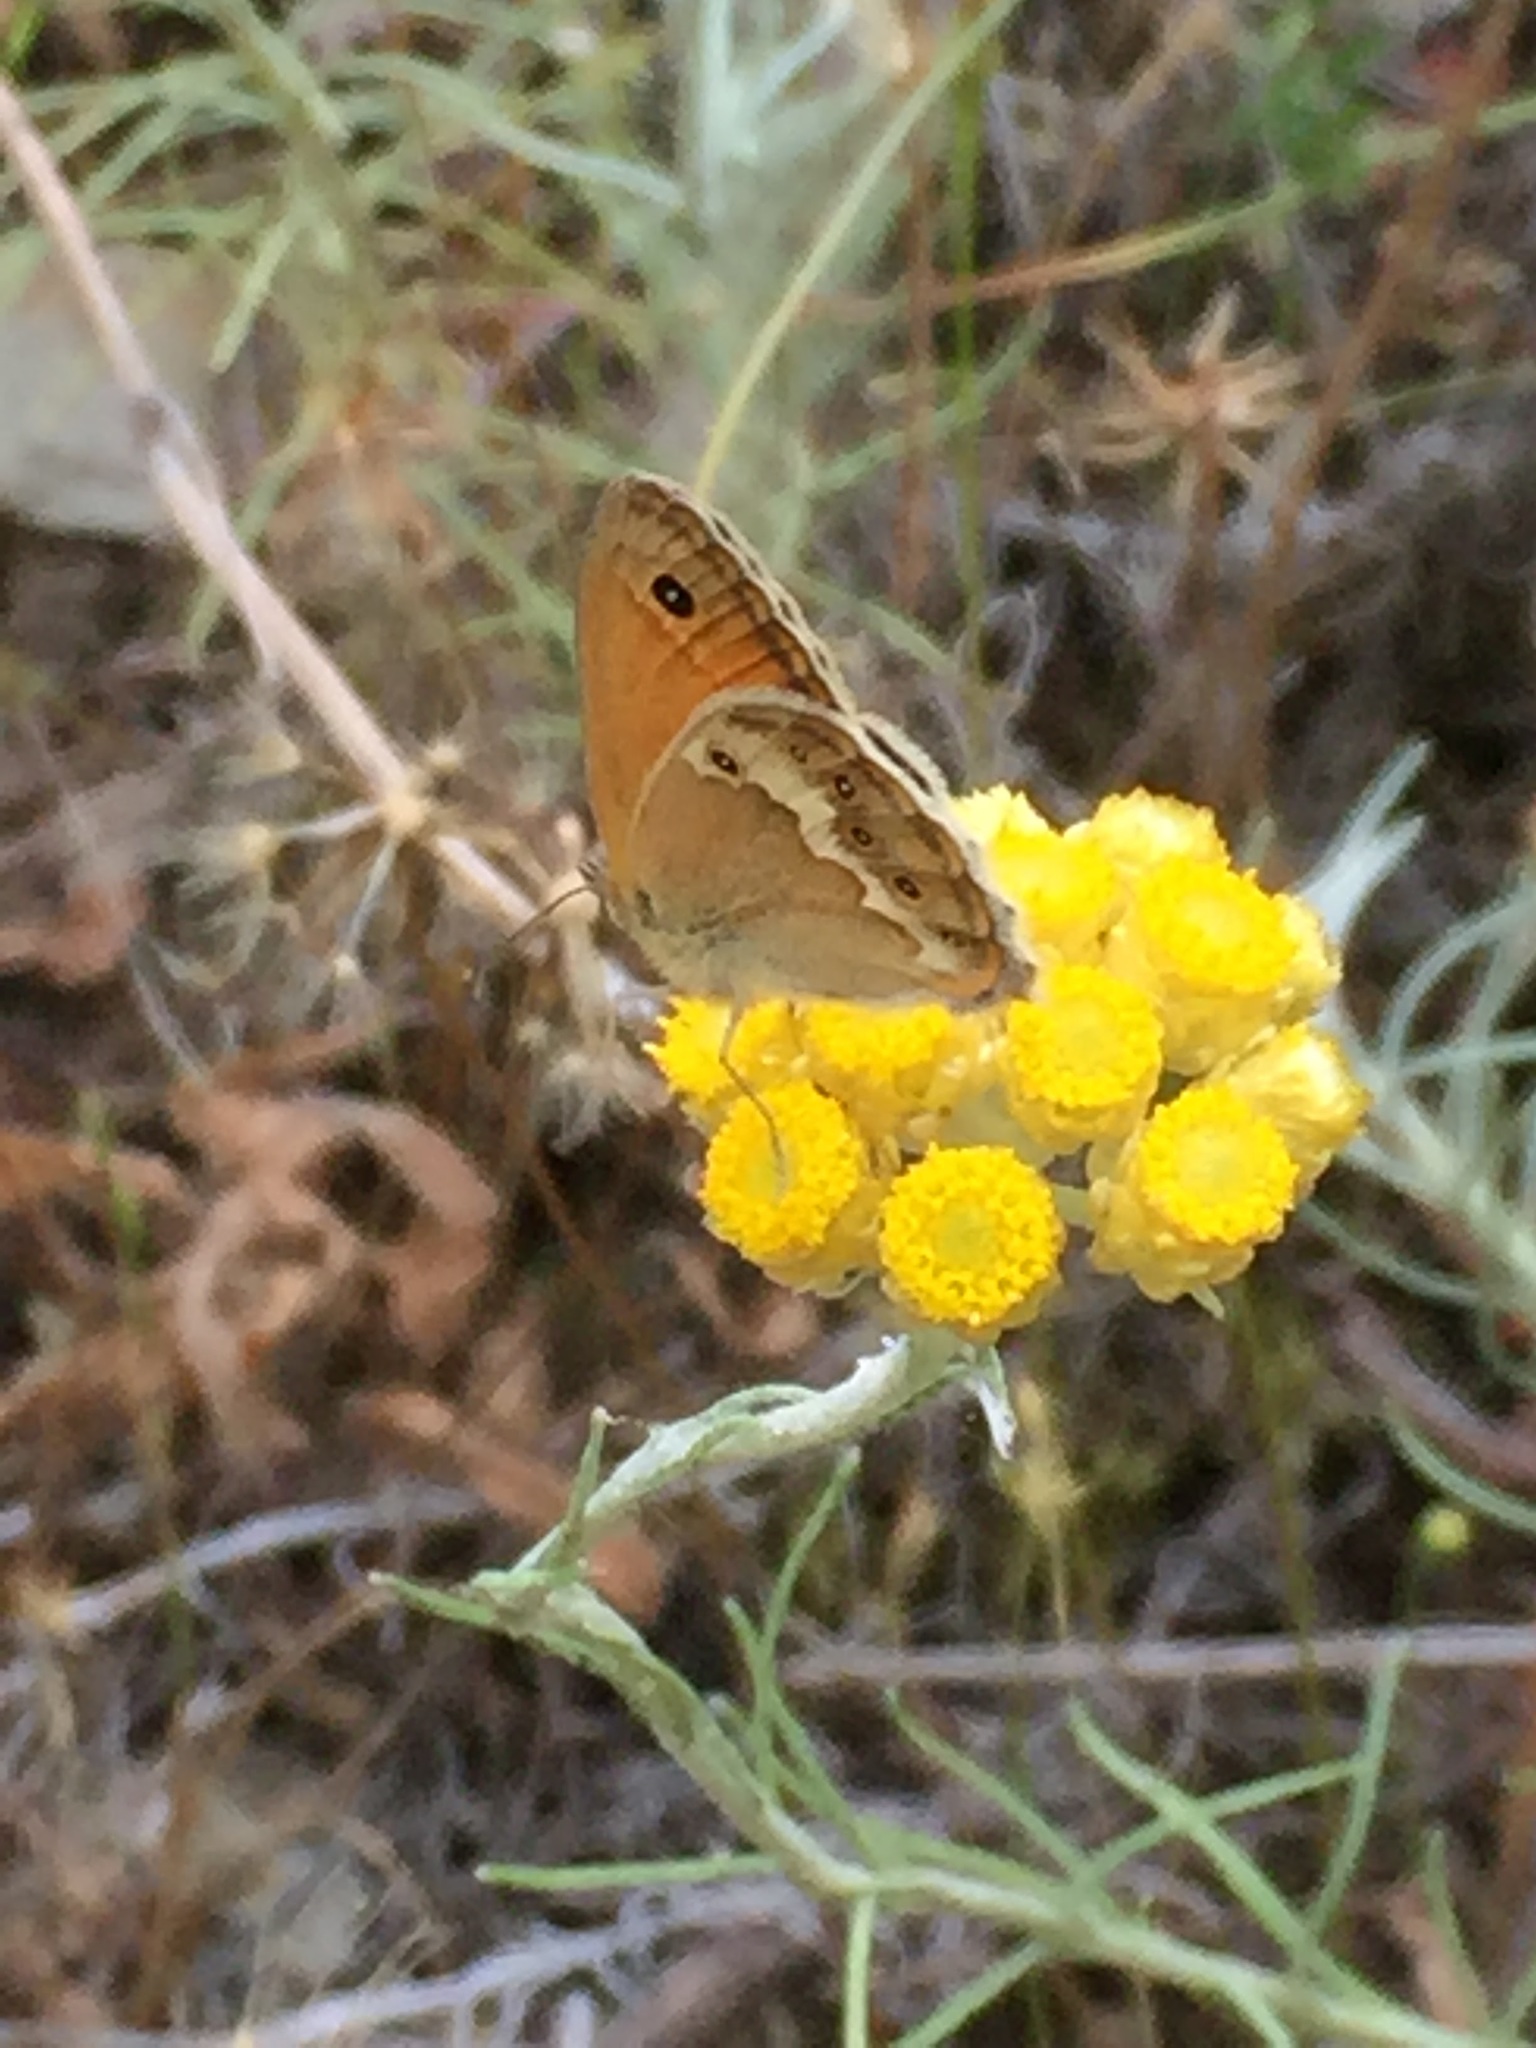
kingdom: Plantae
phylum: Tracheophyta
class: Magnoliopsida
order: Asterales
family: Asteraceae
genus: Helichrysum
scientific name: Helichrysum stoechas
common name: Goldilocks
